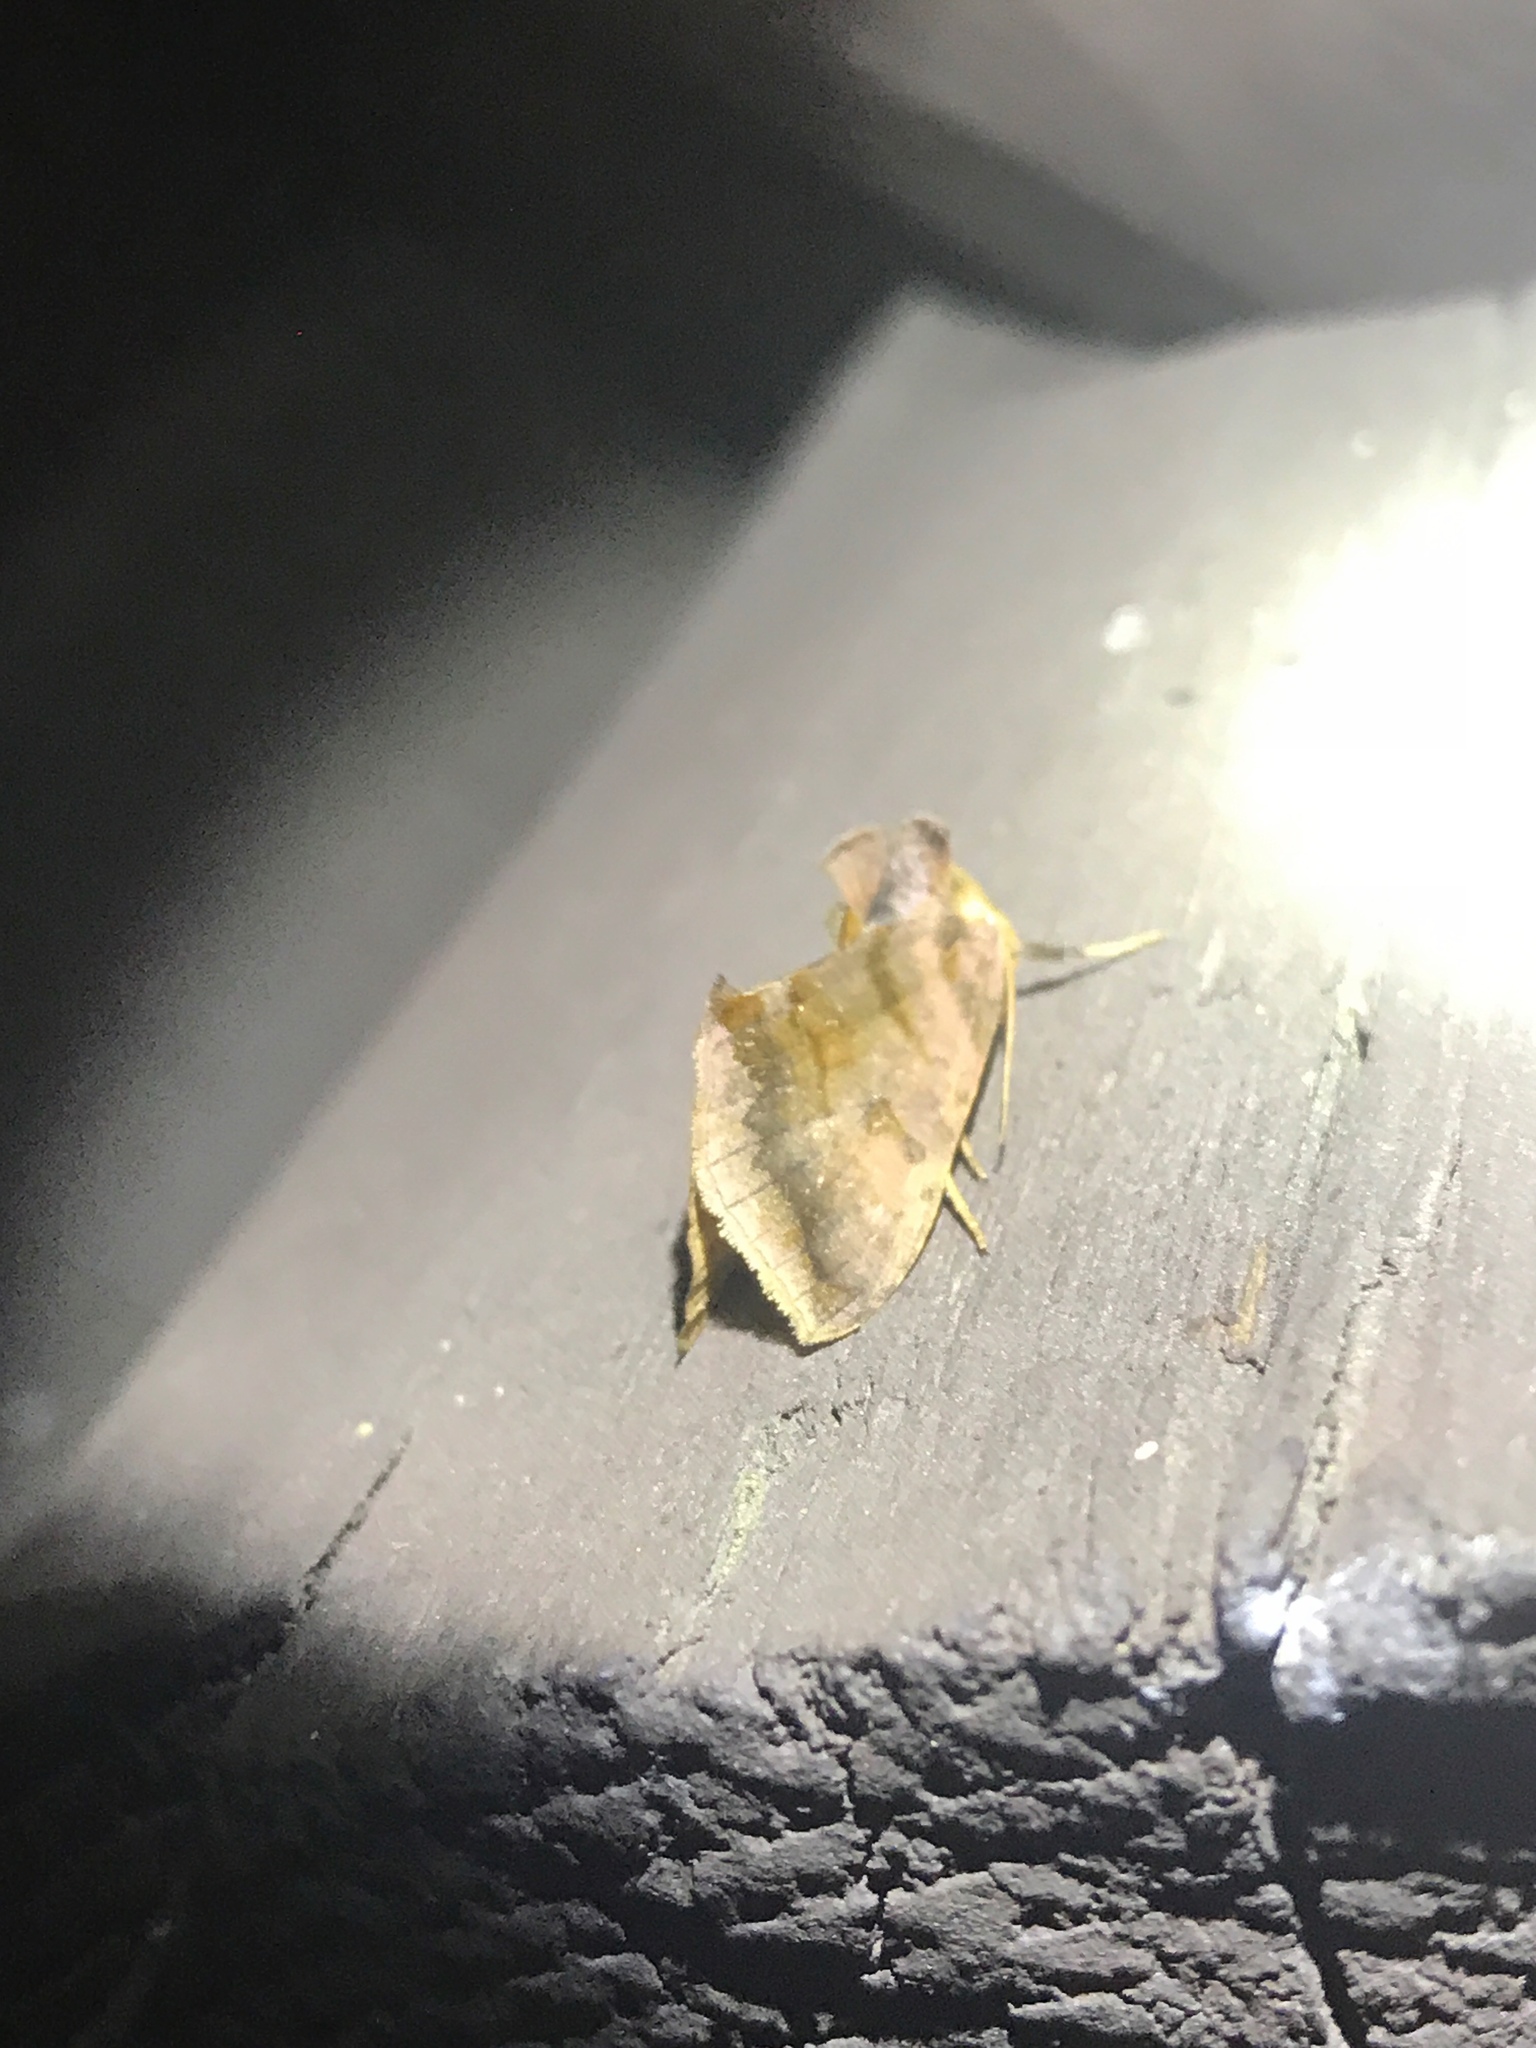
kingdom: Animalia
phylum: Arthropoda
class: Insecta
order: Lepidoptera
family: Noctuidae
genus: Allagrapha
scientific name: Allagrapha aerea
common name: Unspotted looper moth
